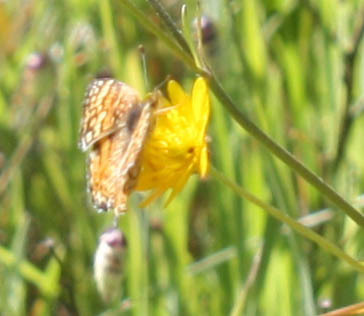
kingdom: Animalia
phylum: Arthropoda
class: Insecta
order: Lepidoptera
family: Nymphalidae
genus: Eresia
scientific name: Eresia aveyrona
